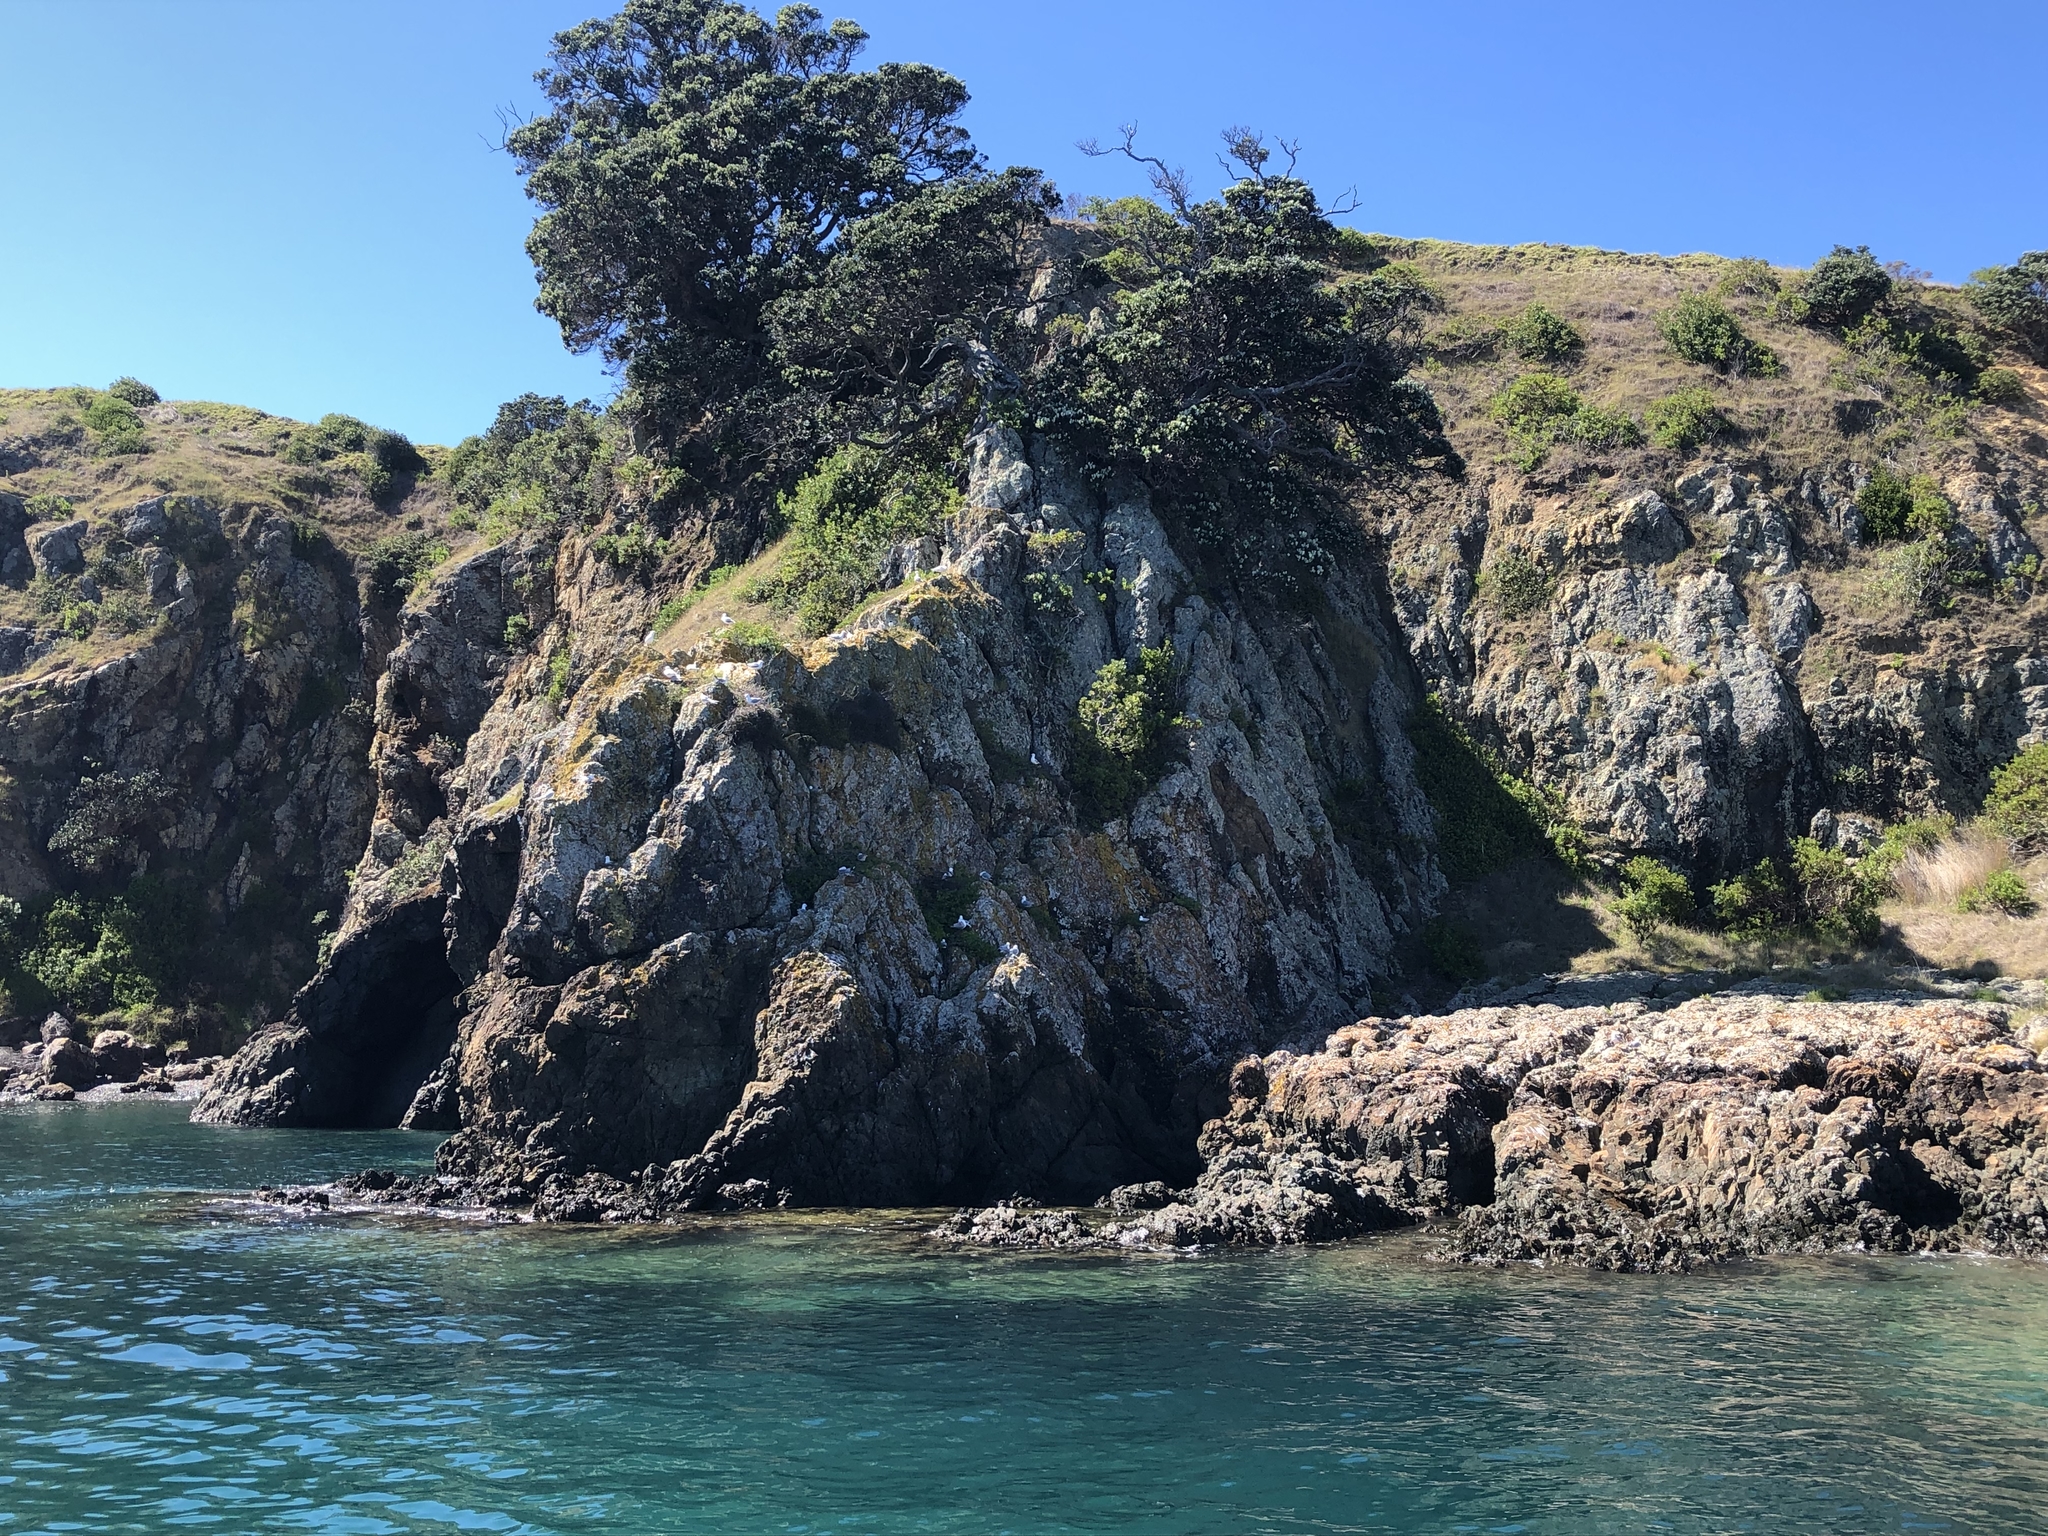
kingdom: Animalia
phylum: Chordata
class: Aves
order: Charadriiformes
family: Laridae
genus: Chroicocephalus
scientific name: Chroicocephalus novaehollandiae
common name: Silver gull
